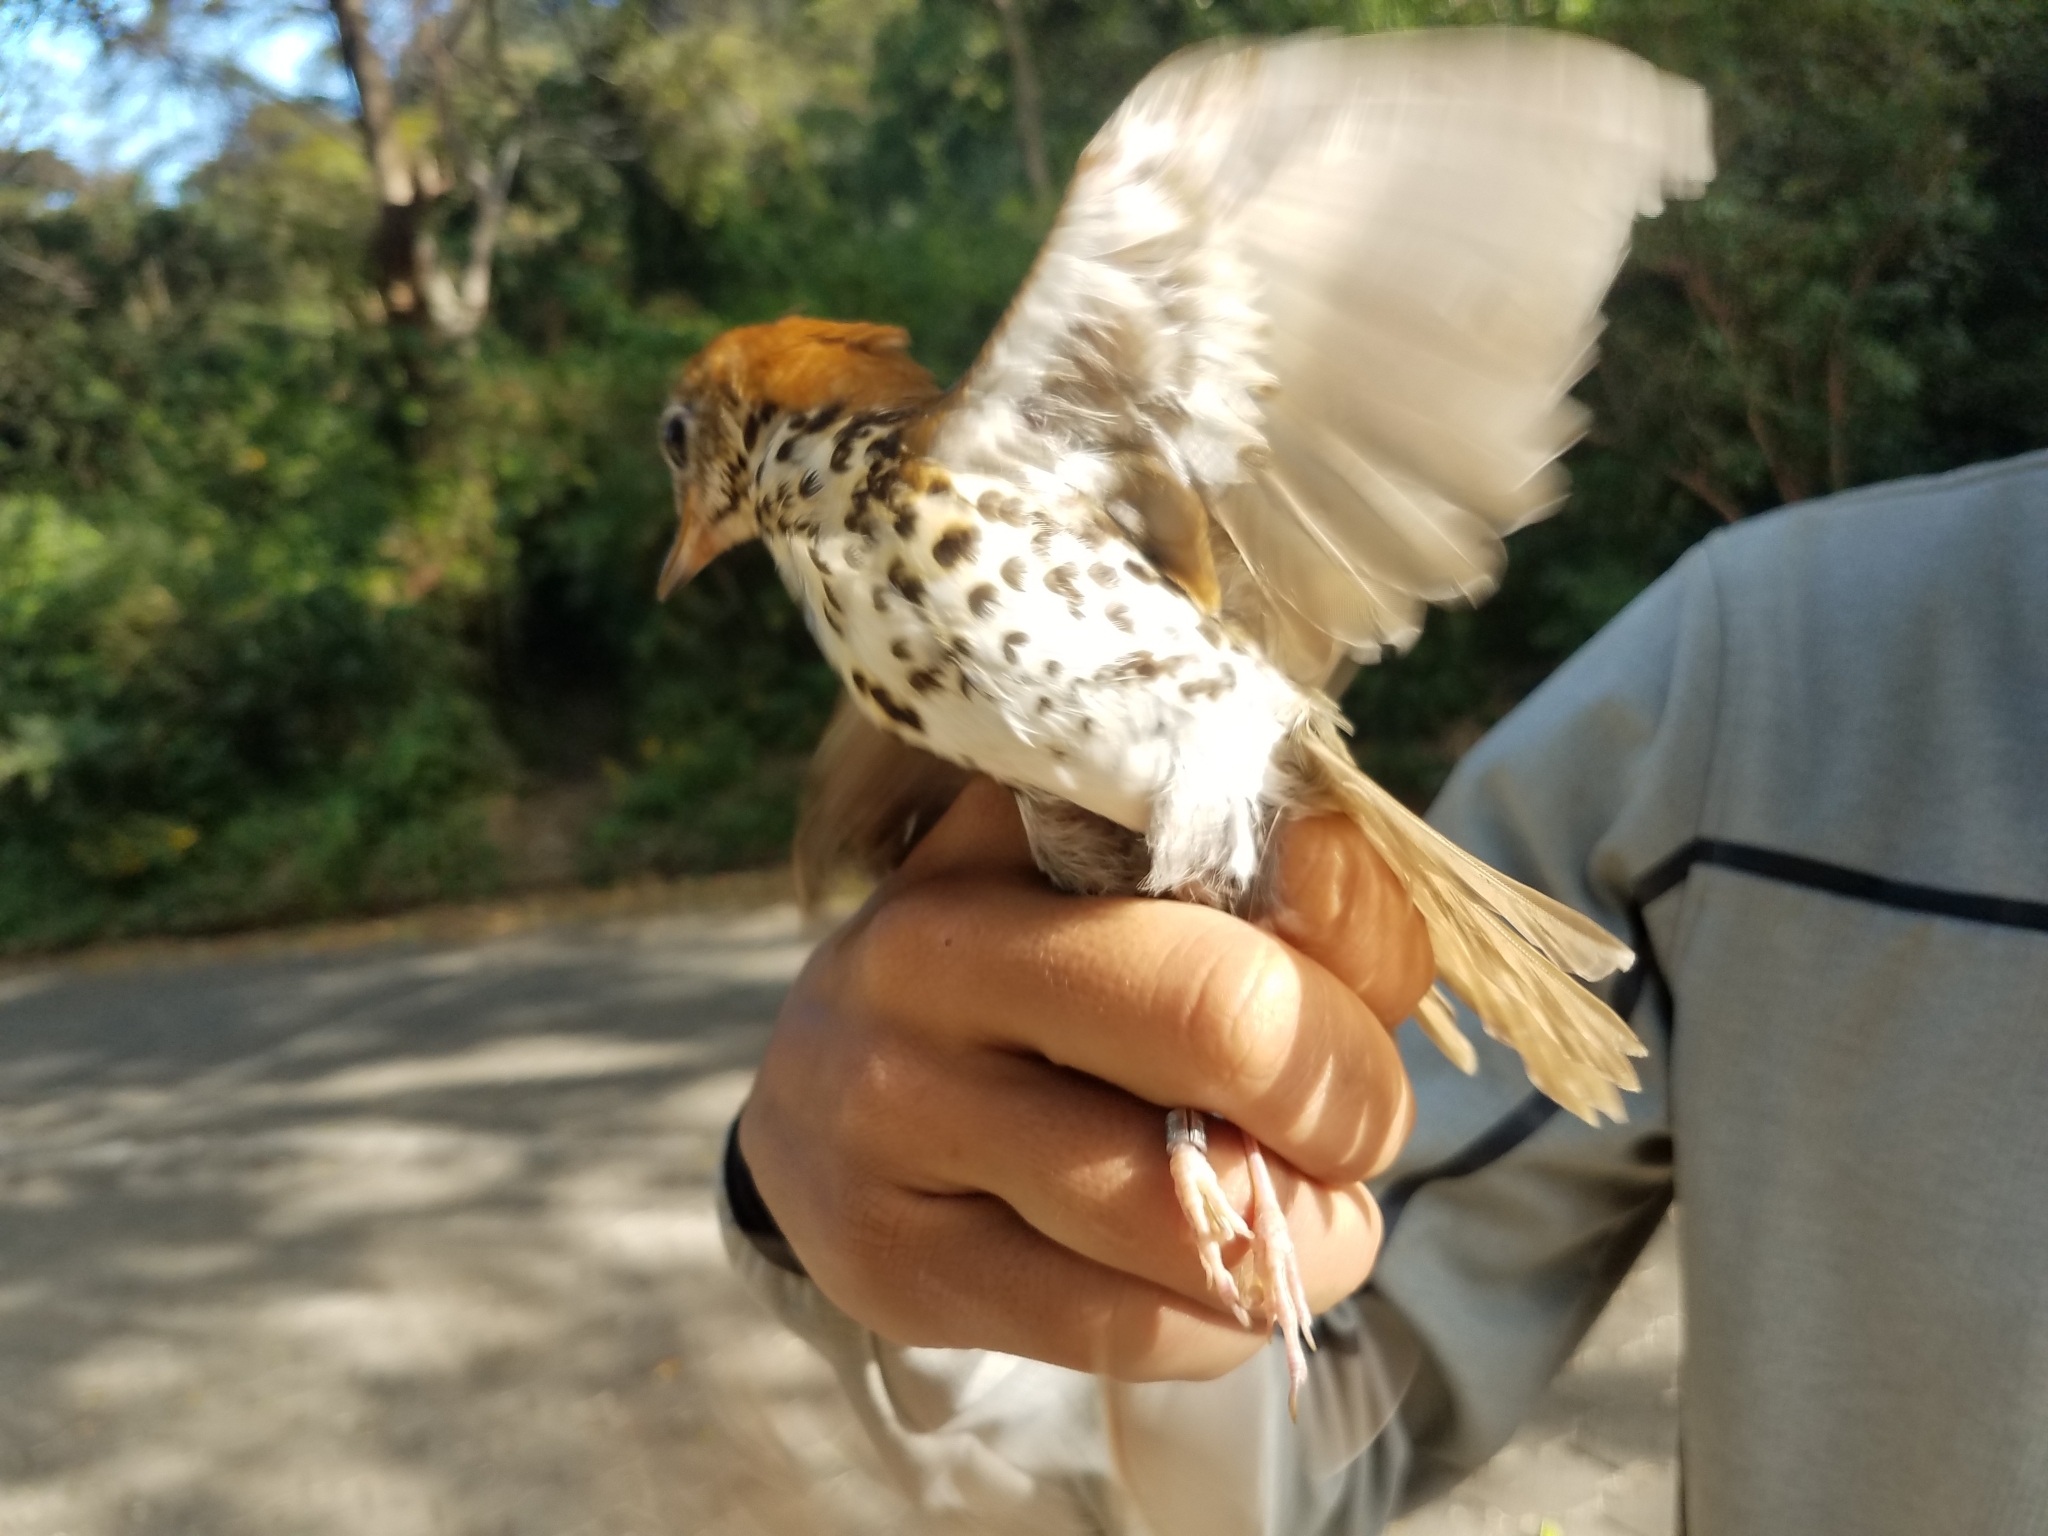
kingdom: Animalia
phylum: Chordata
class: Aves
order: Passeriformes
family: Turdidae
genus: Hylocichla
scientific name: Hylocichla mustelina
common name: Wood thrush
